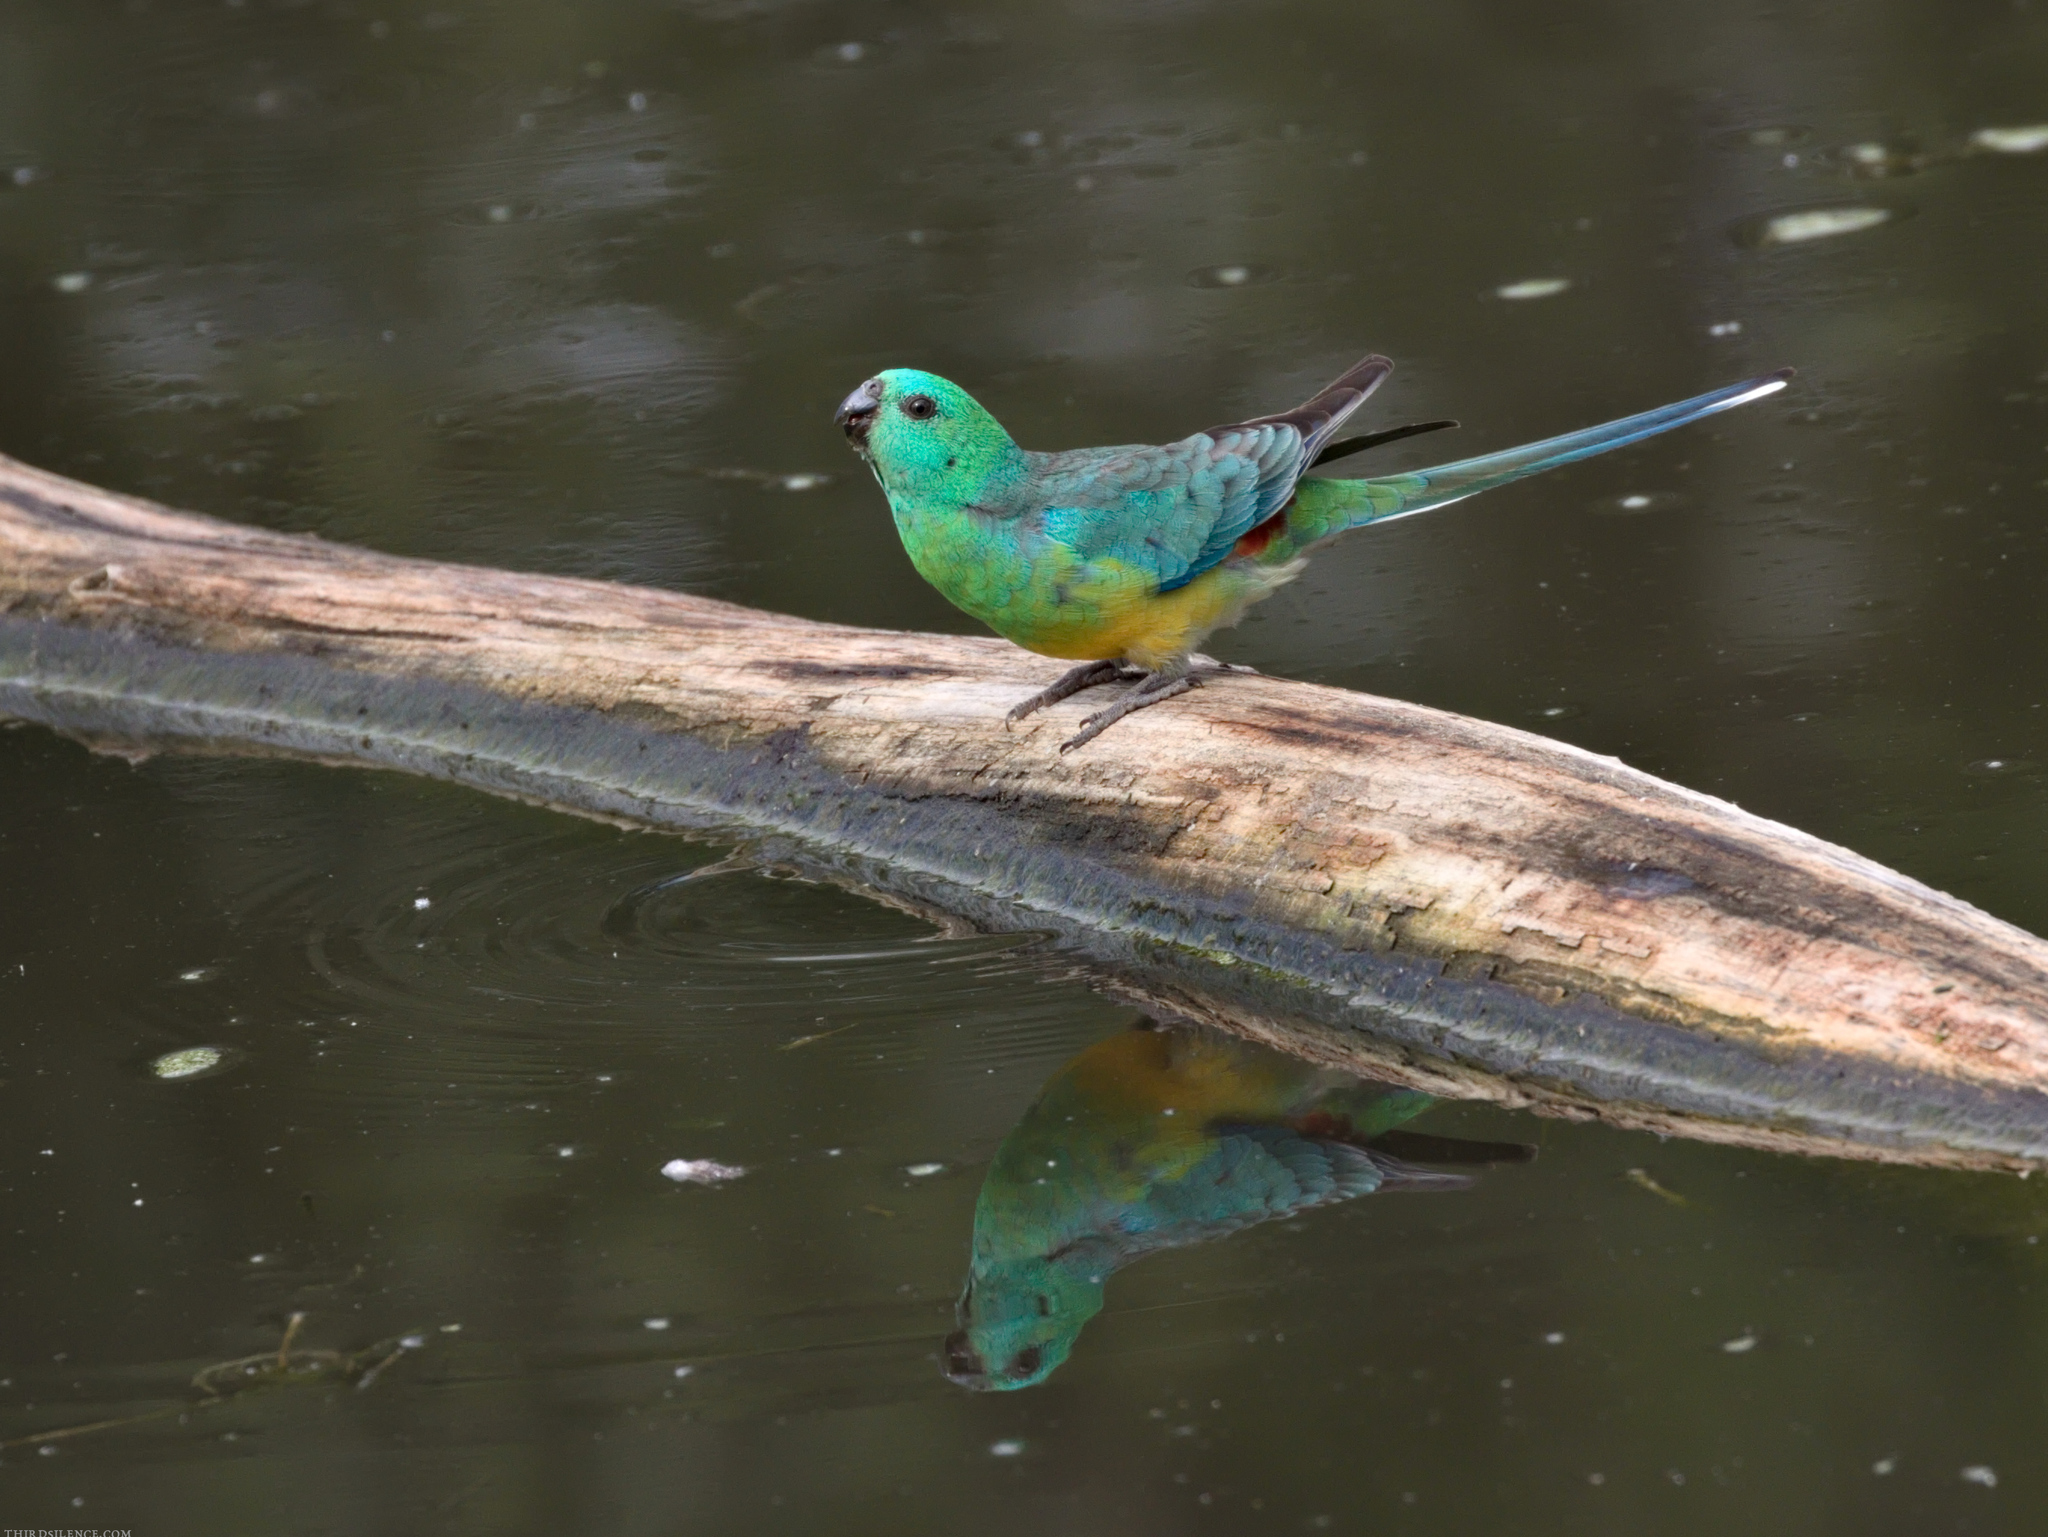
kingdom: Animalia
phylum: Chordata
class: Aves
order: Psittaciformes
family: Psittacidae
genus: Psephotus
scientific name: Psephotus haematonotus
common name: Red-rumped parrot
